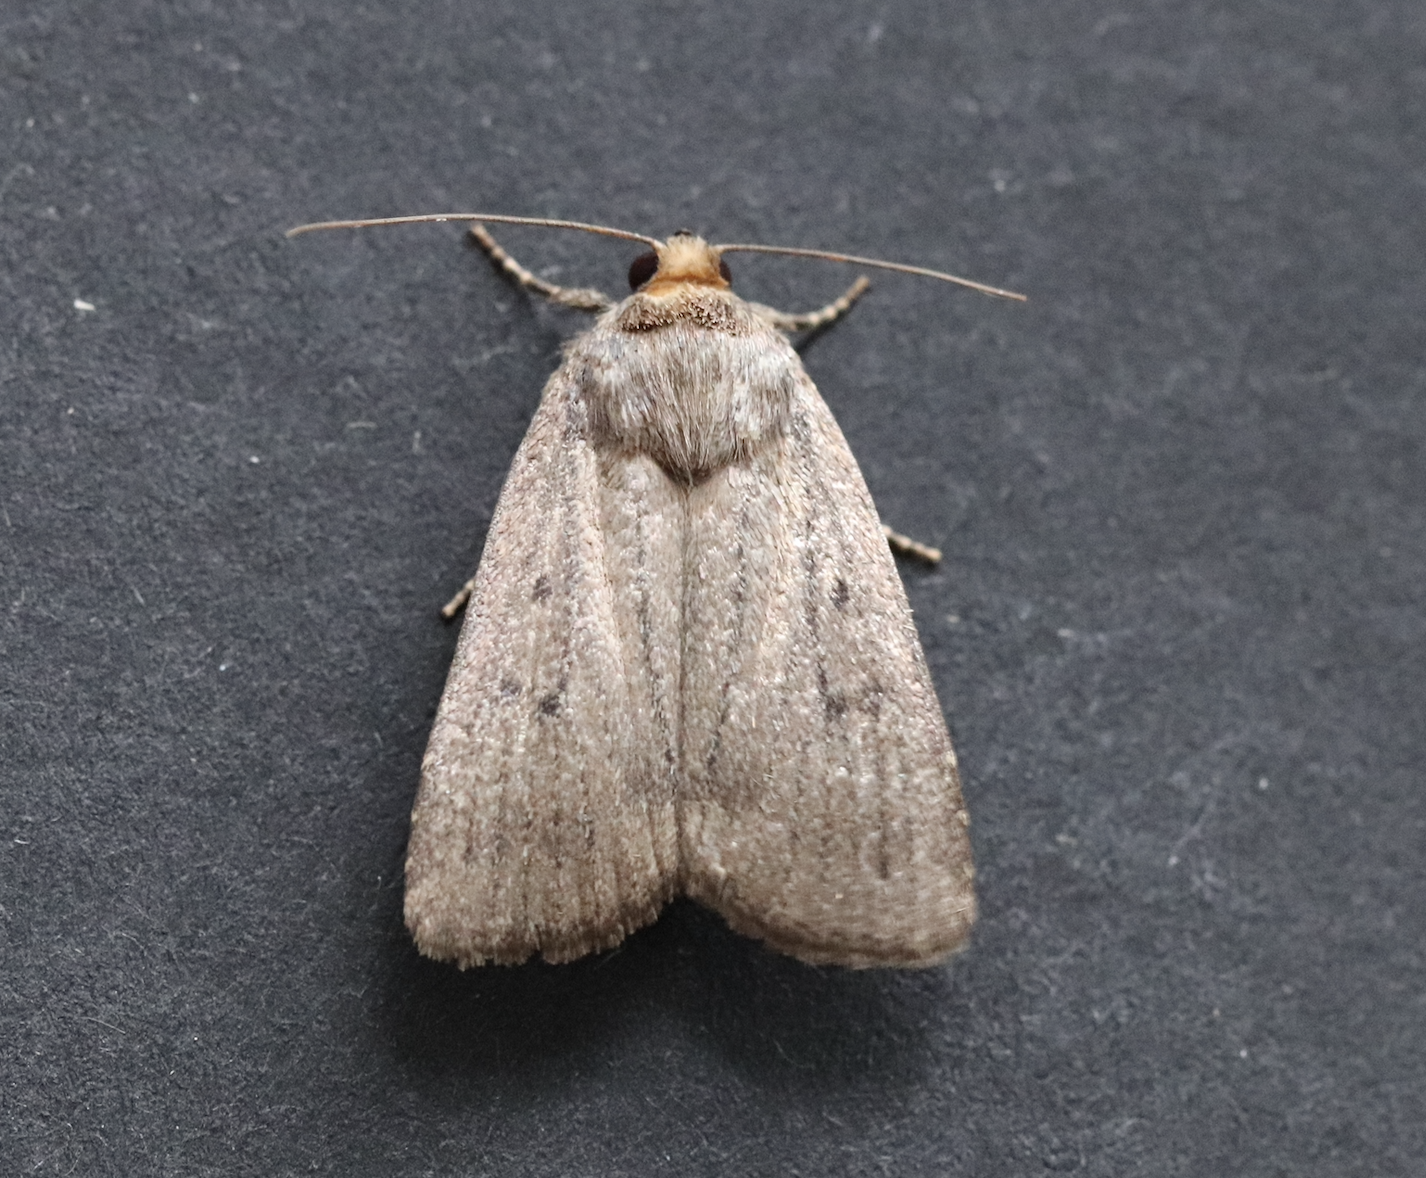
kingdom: Animalia
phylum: Arthropoda
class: Insecta
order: Lepidoptera
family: Noctuidae
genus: Amphipyra
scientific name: Amphipyra tragopoginis
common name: Mouse moth
